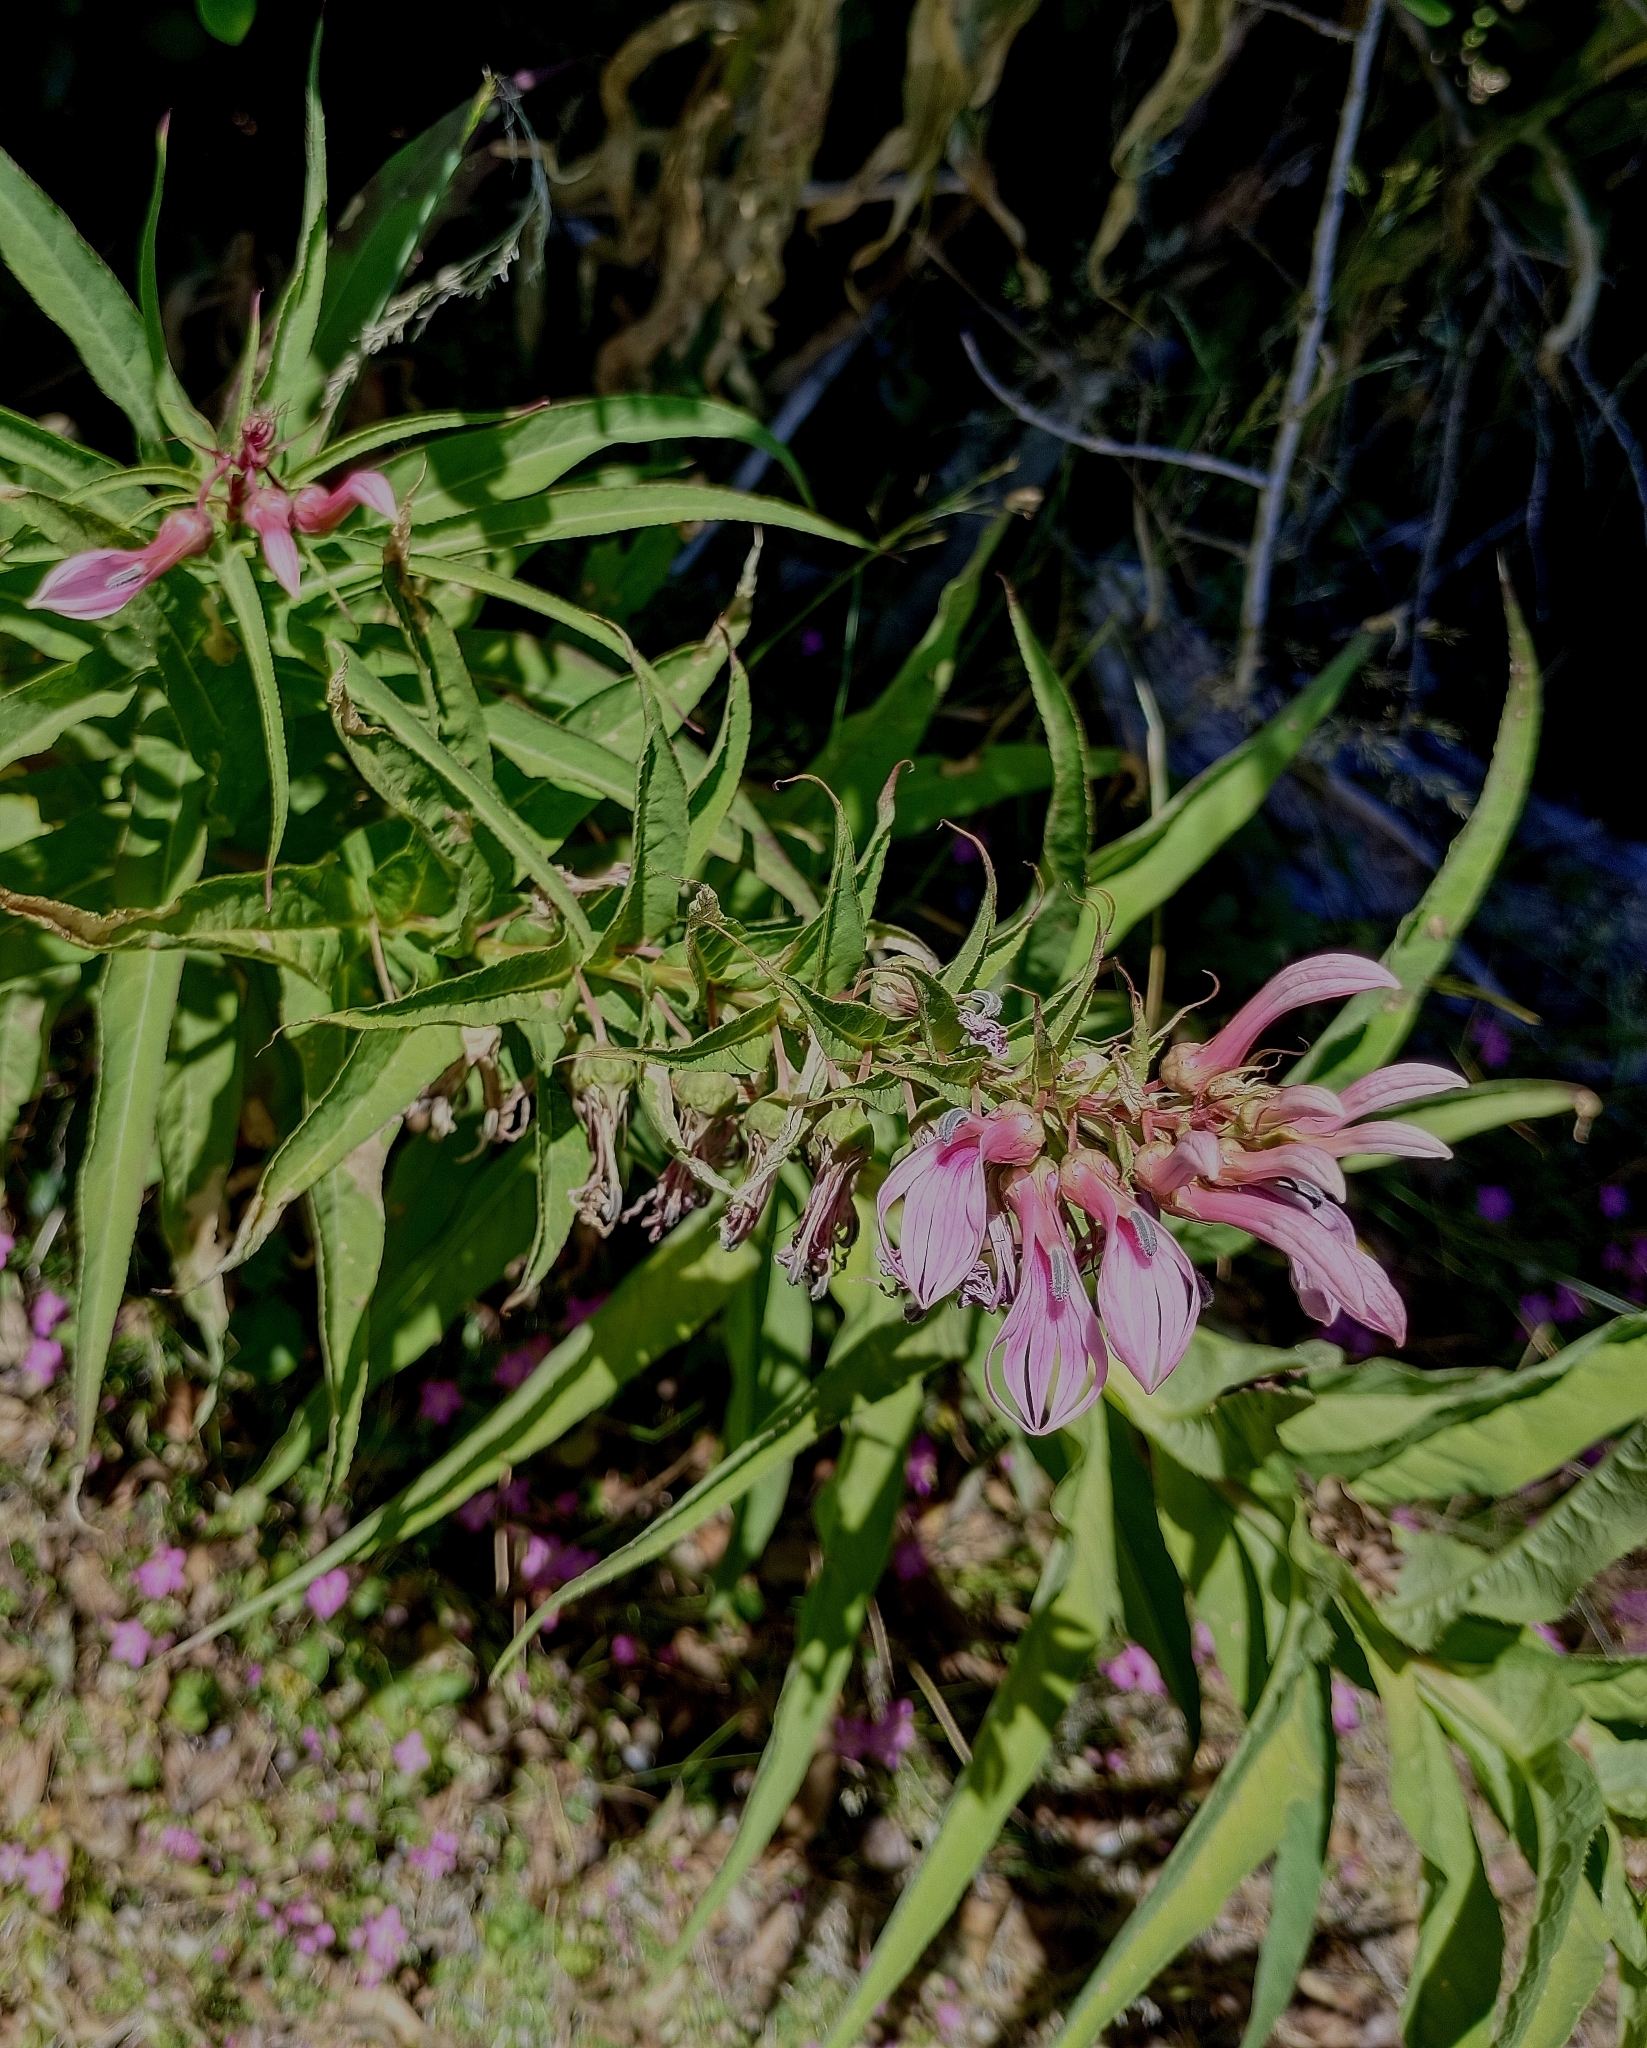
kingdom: Plantae
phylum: Tracheophyta
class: Magnoliopsida
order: Asterales
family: Campanulaceae
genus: Lobelia
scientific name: Lobelia bridgesii
